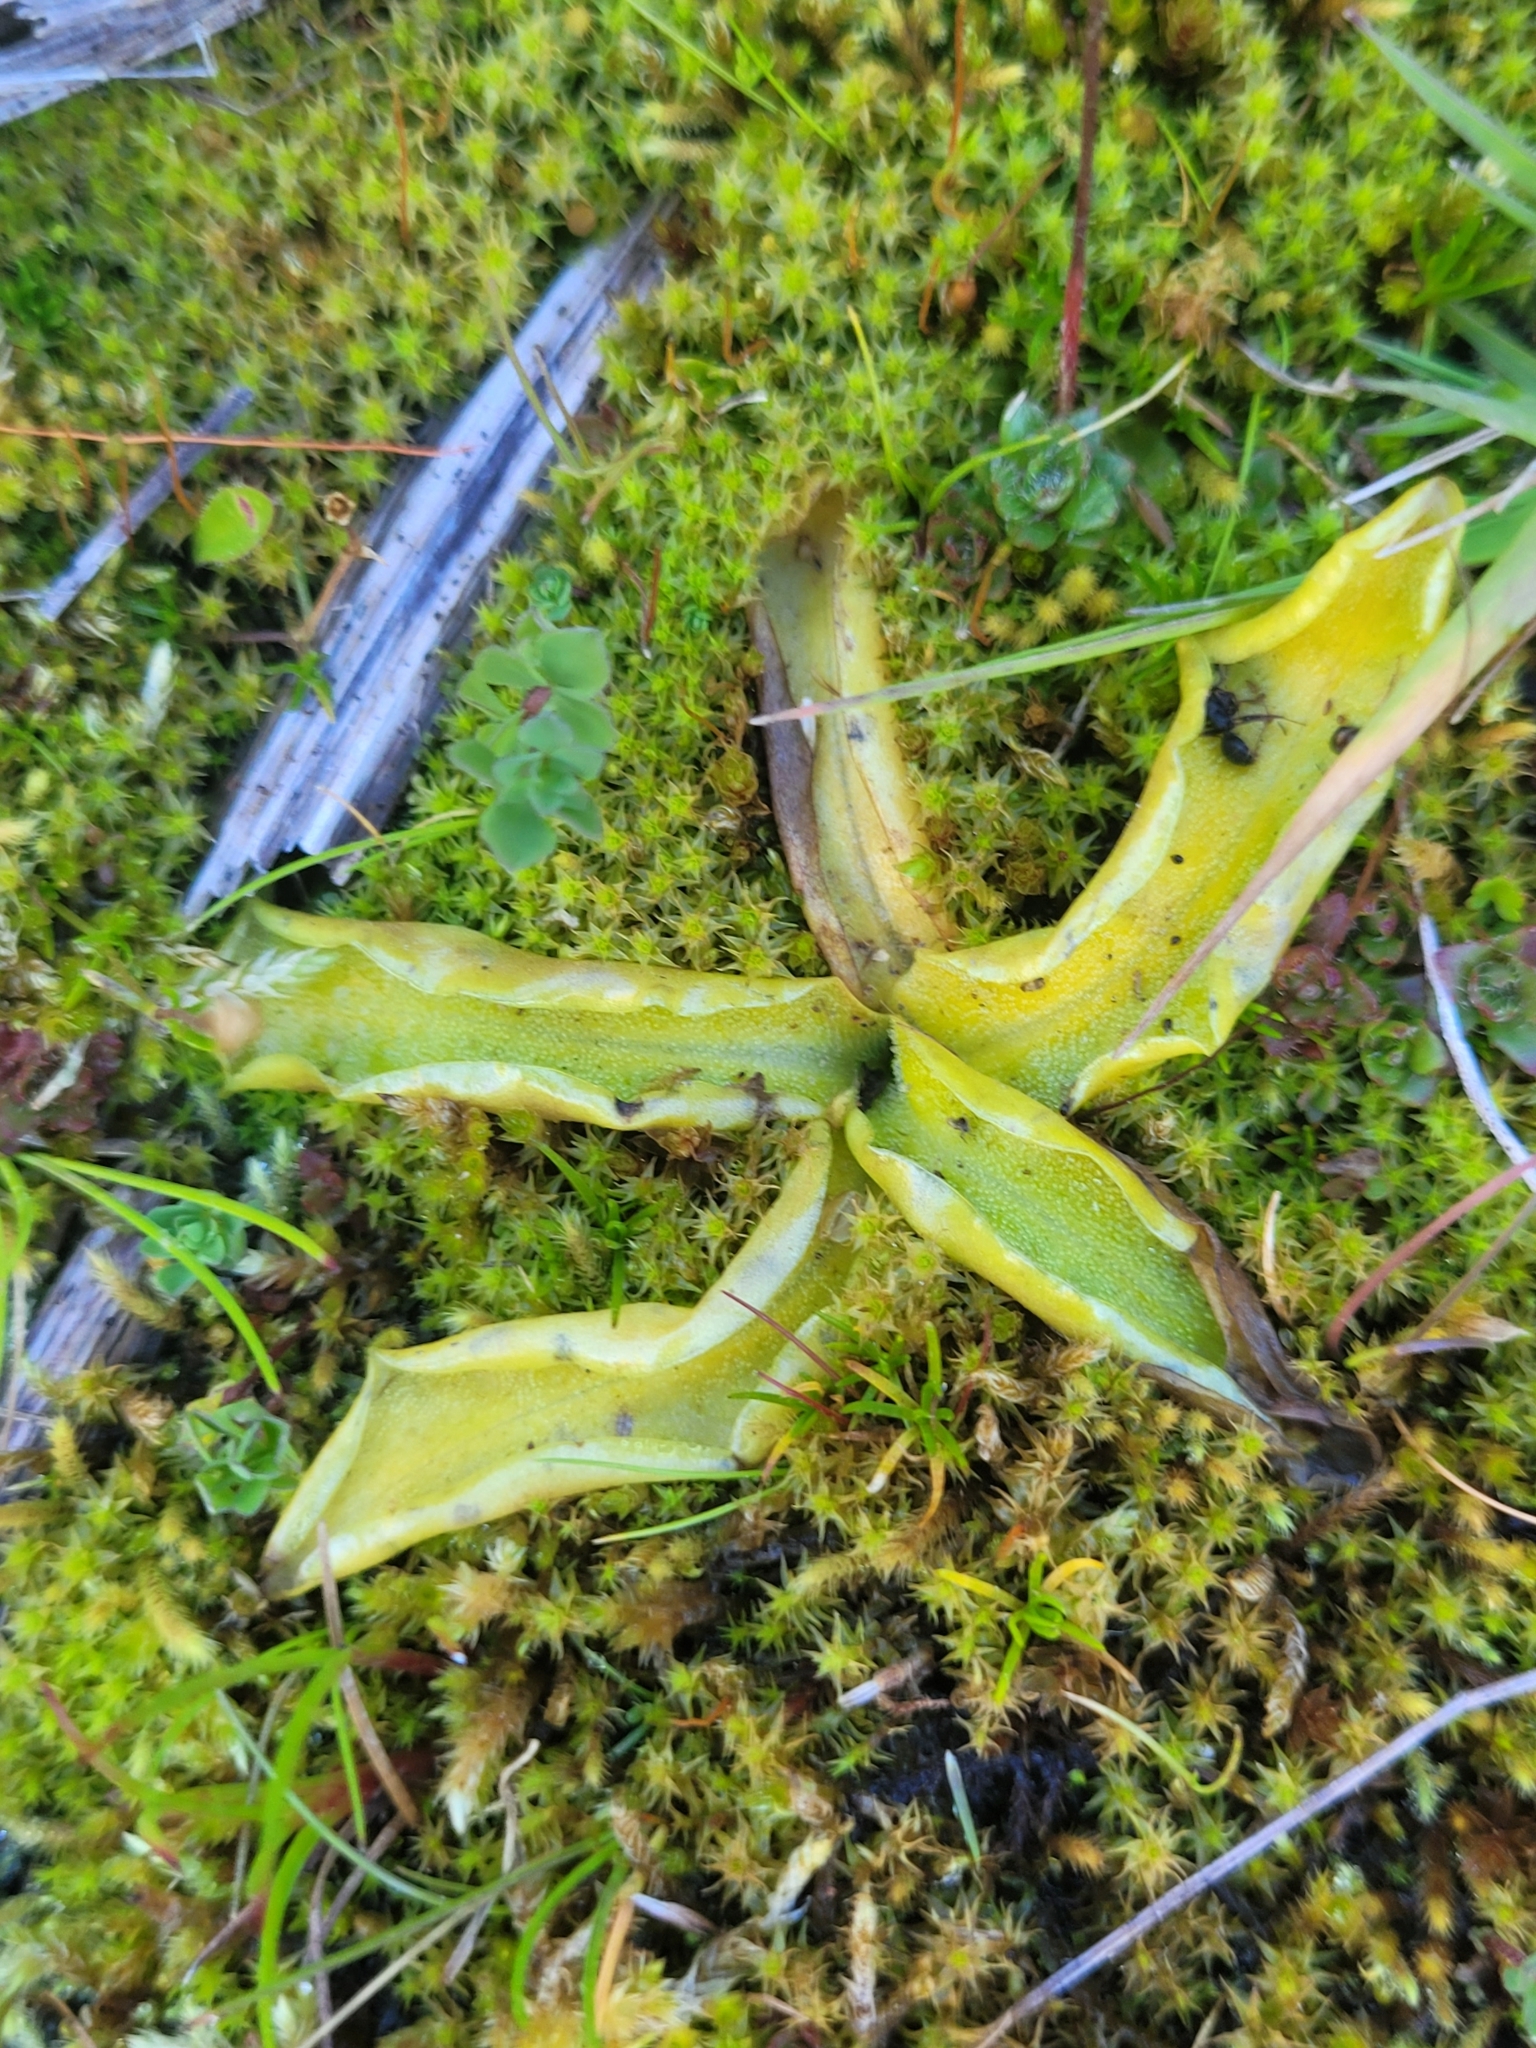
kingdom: Plantae
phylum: Tracheophyta
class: Magnoliopsida
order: Lamiales
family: Lentibulariaceae
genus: Pinguicula
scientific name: Pinguicula vulgaris
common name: Common butterwort
